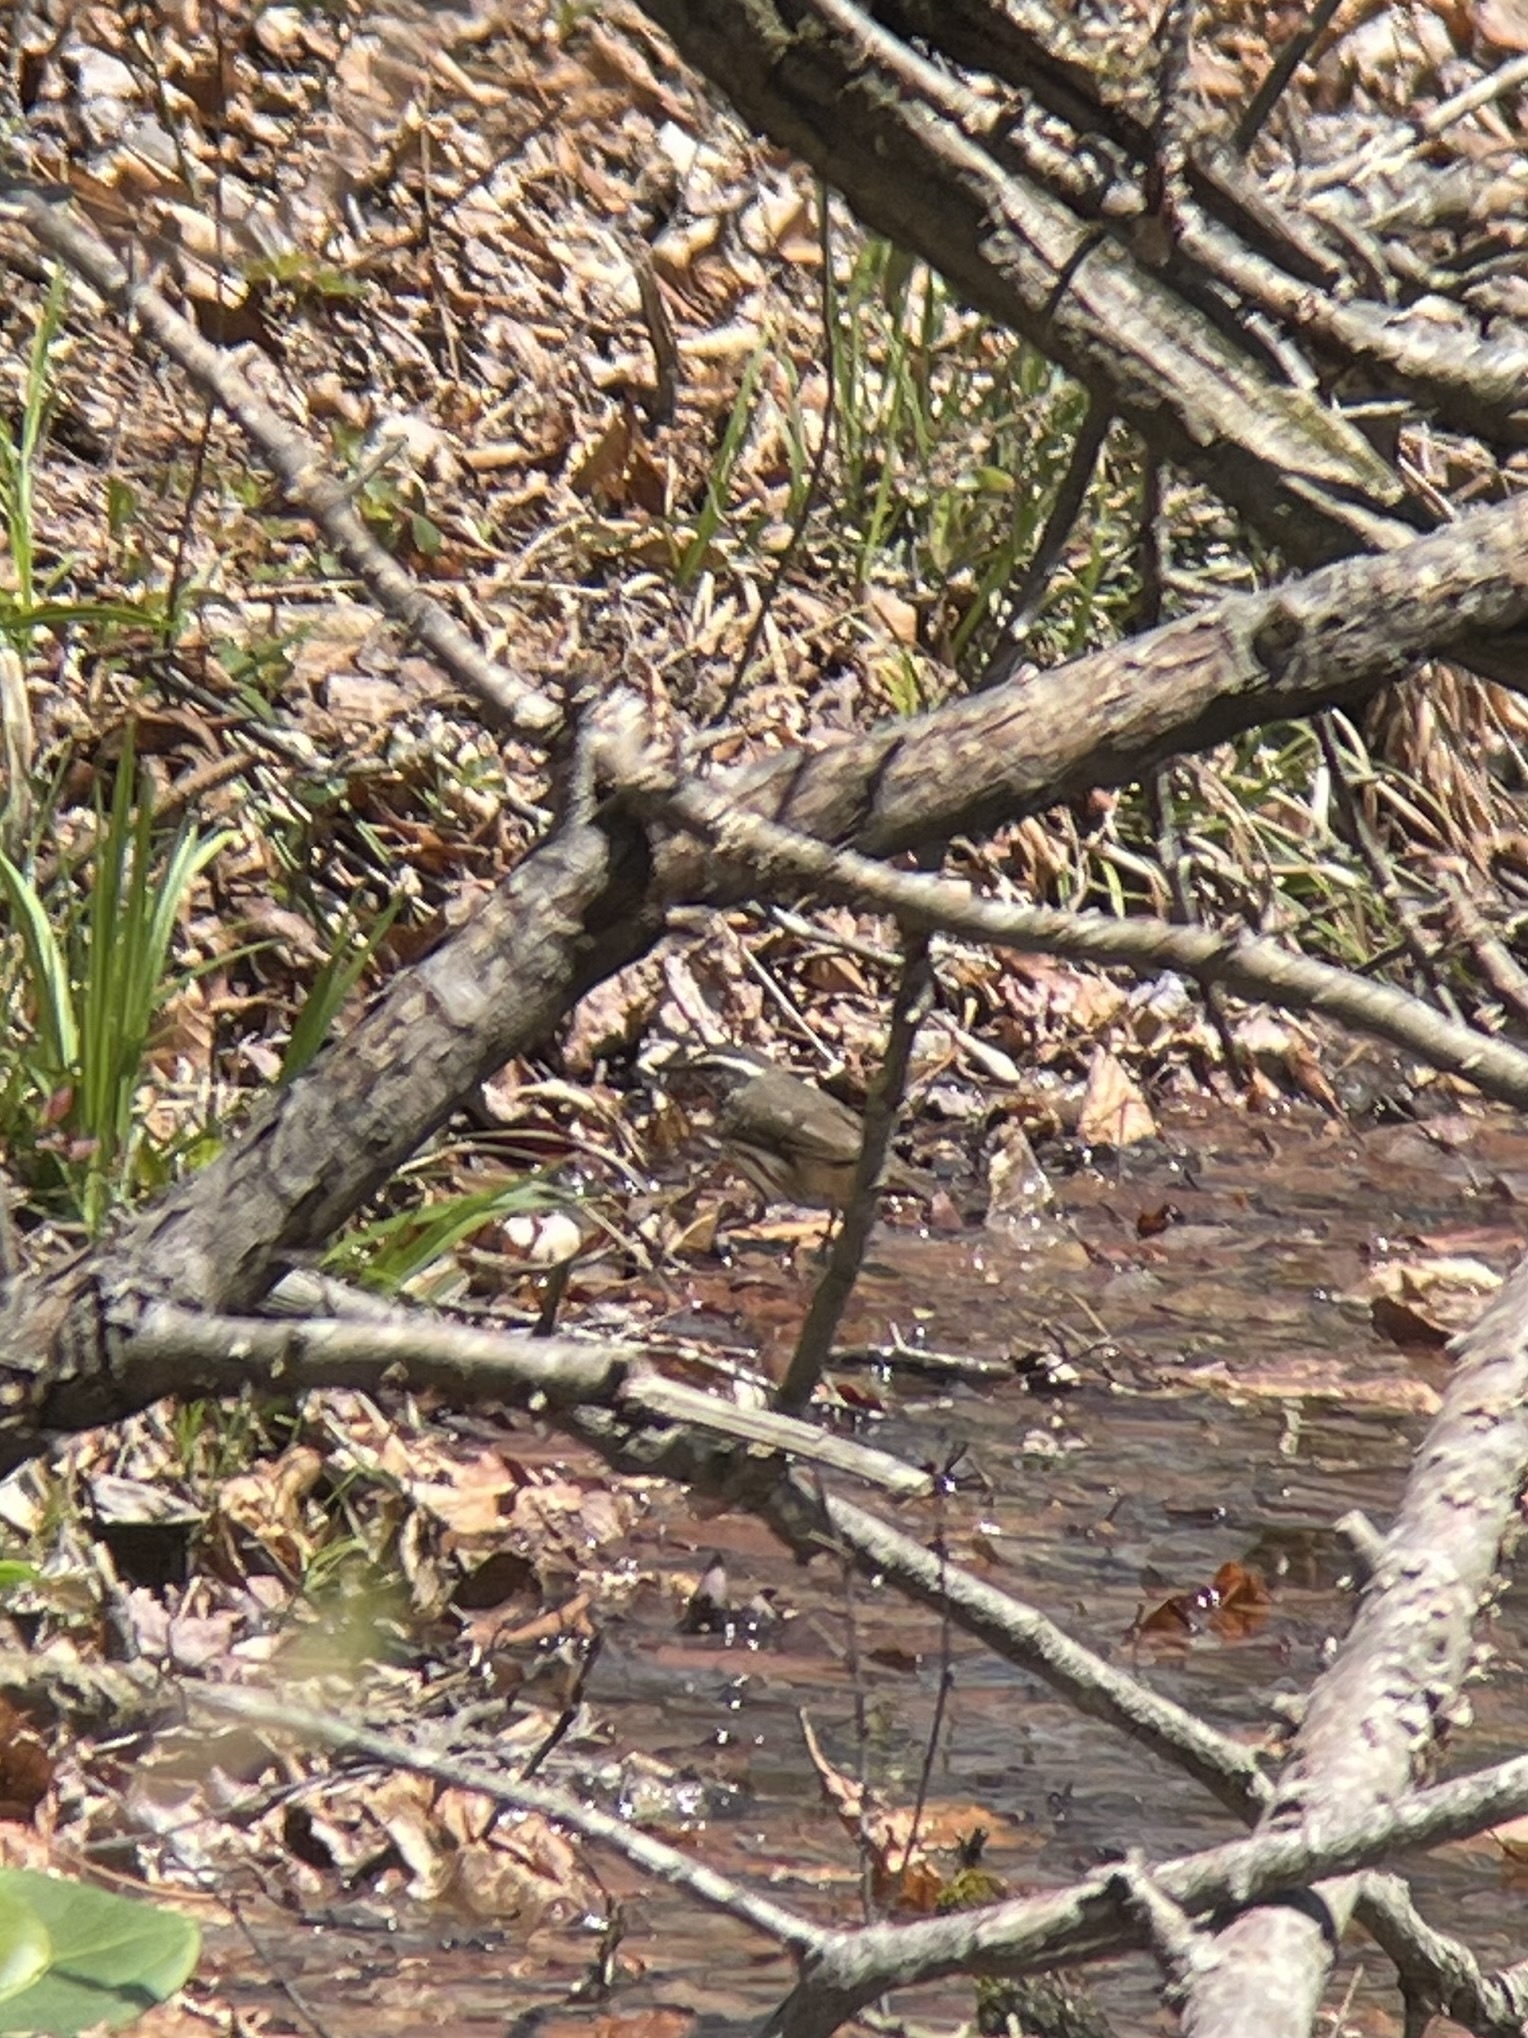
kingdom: Animalia
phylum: Chordata
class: Aves
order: Passeriformes
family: Parulidae
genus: Parkesia
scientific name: Parkesia motacilla
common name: Louisiana waterthrush
